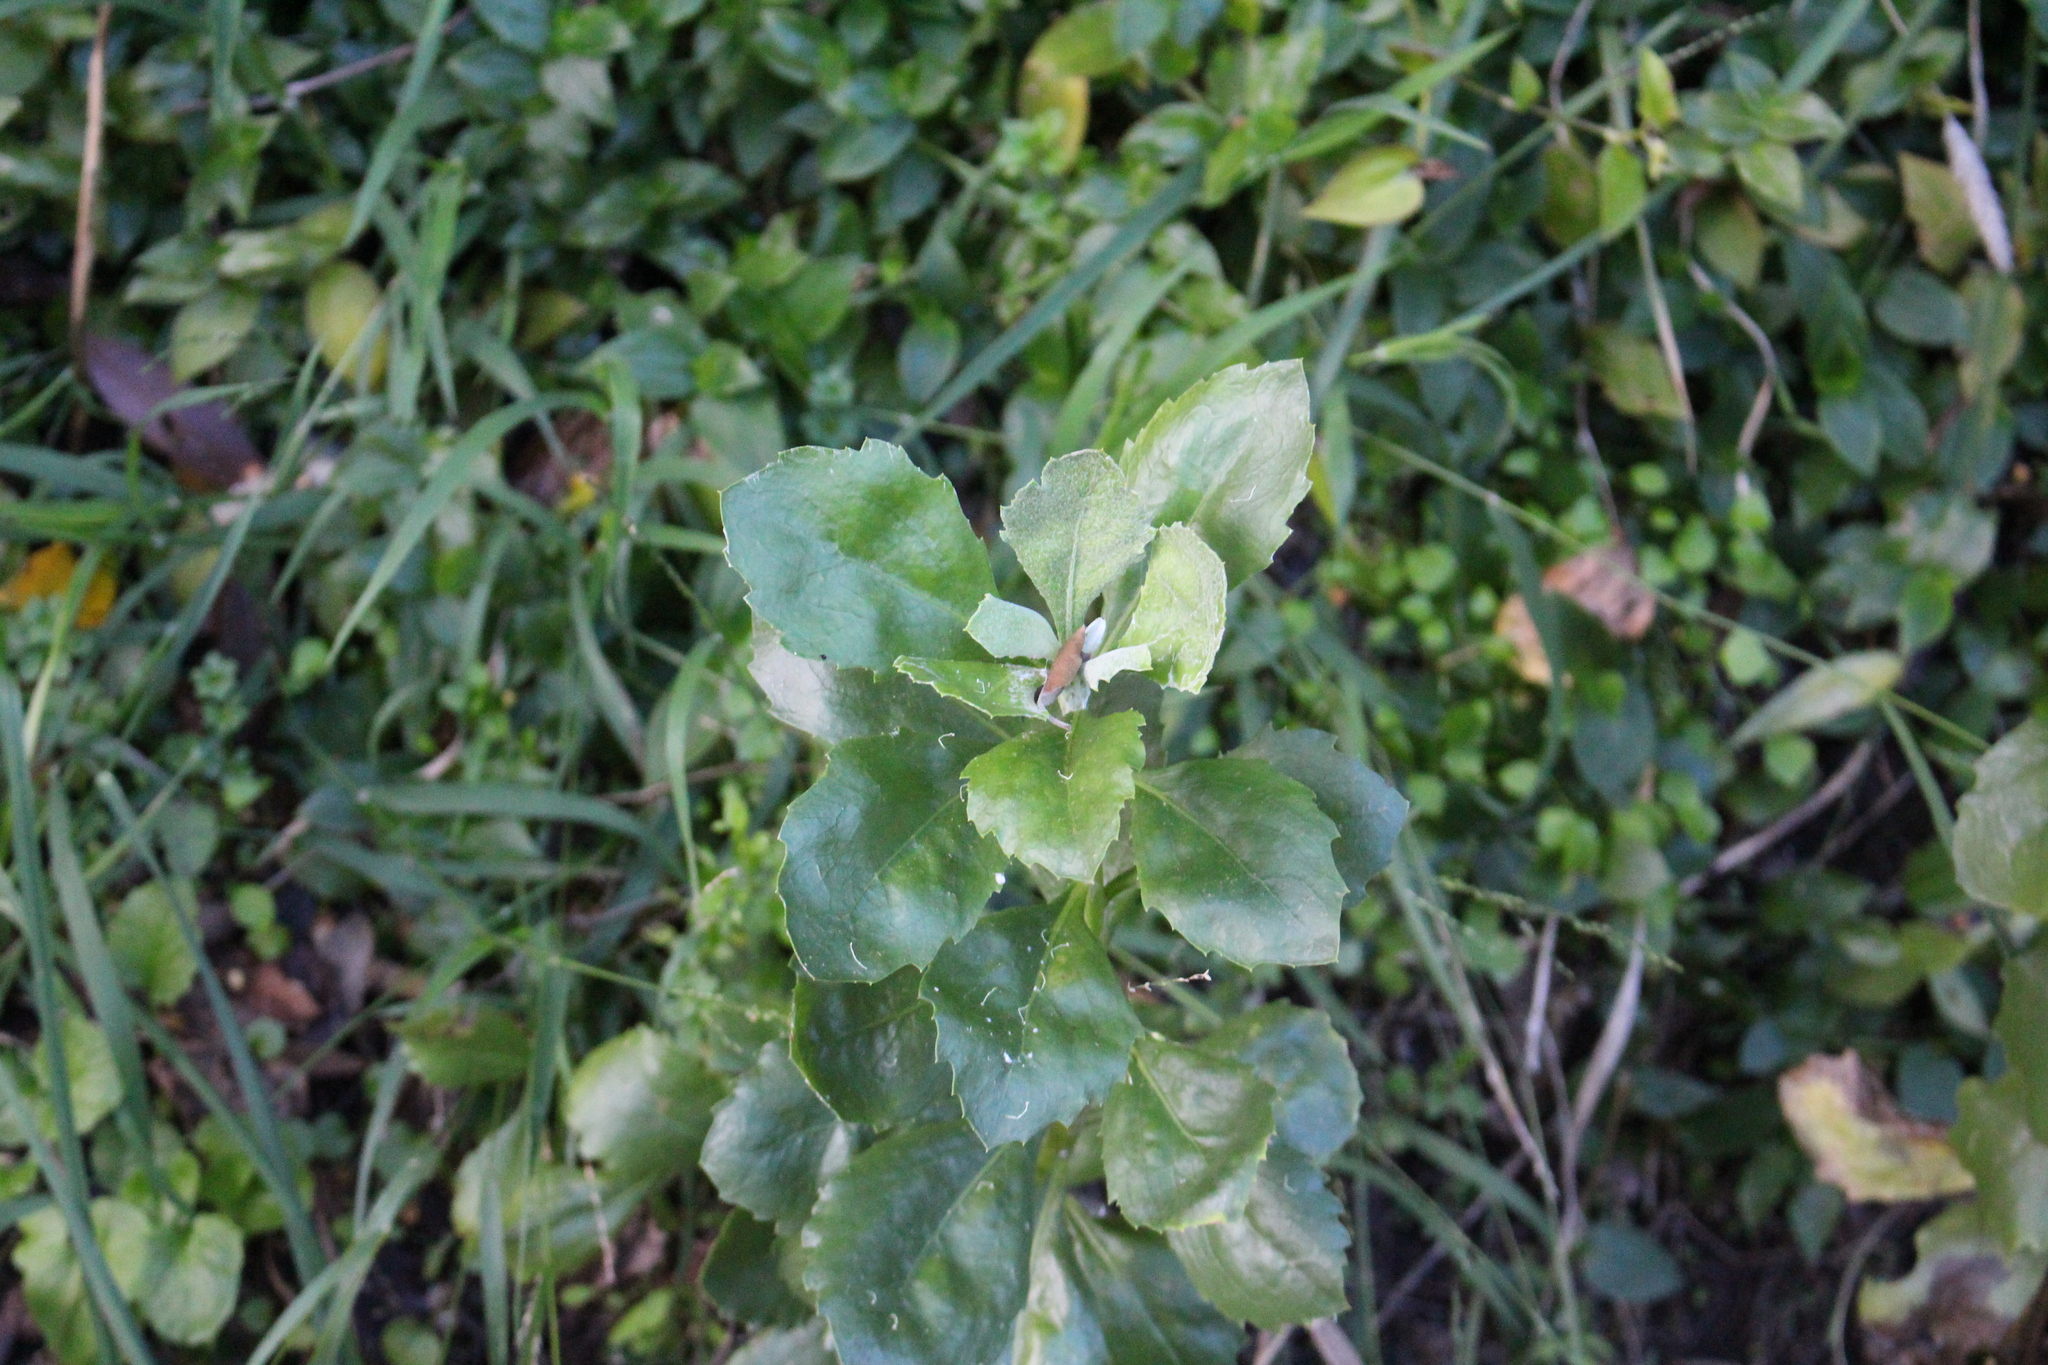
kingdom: Plantae
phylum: Tracheophyta
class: Magnoliopsida
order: Asterales
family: Asteraceae
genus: Osteospermum
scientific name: Osteospermum moniliferum
